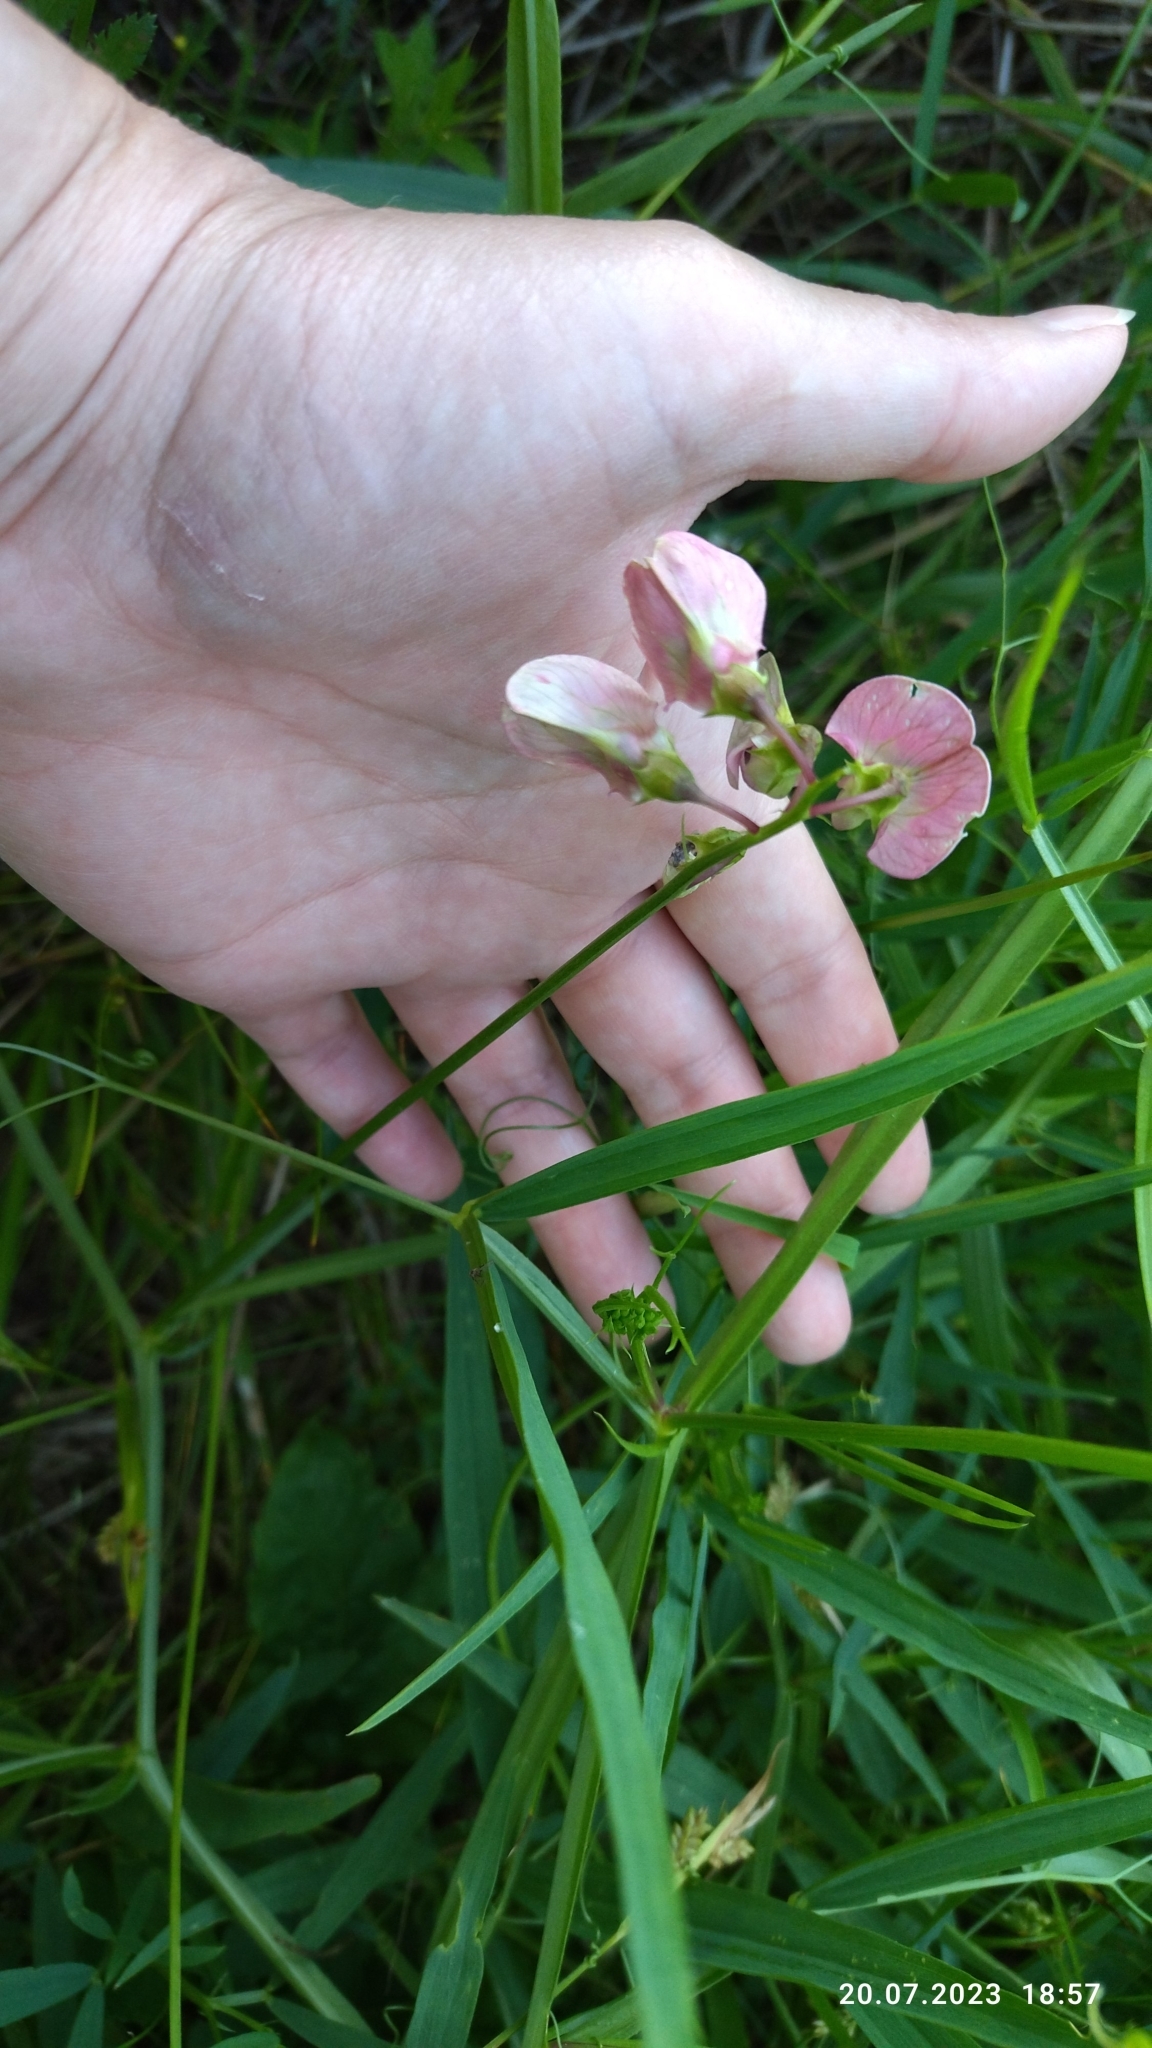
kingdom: Plantae
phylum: Tracheophyta
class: Magnoliopsida
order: Fabales
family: Fabaceae
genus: Lathyrus
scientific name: Lathyrus sylvestris
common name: Flat pea
